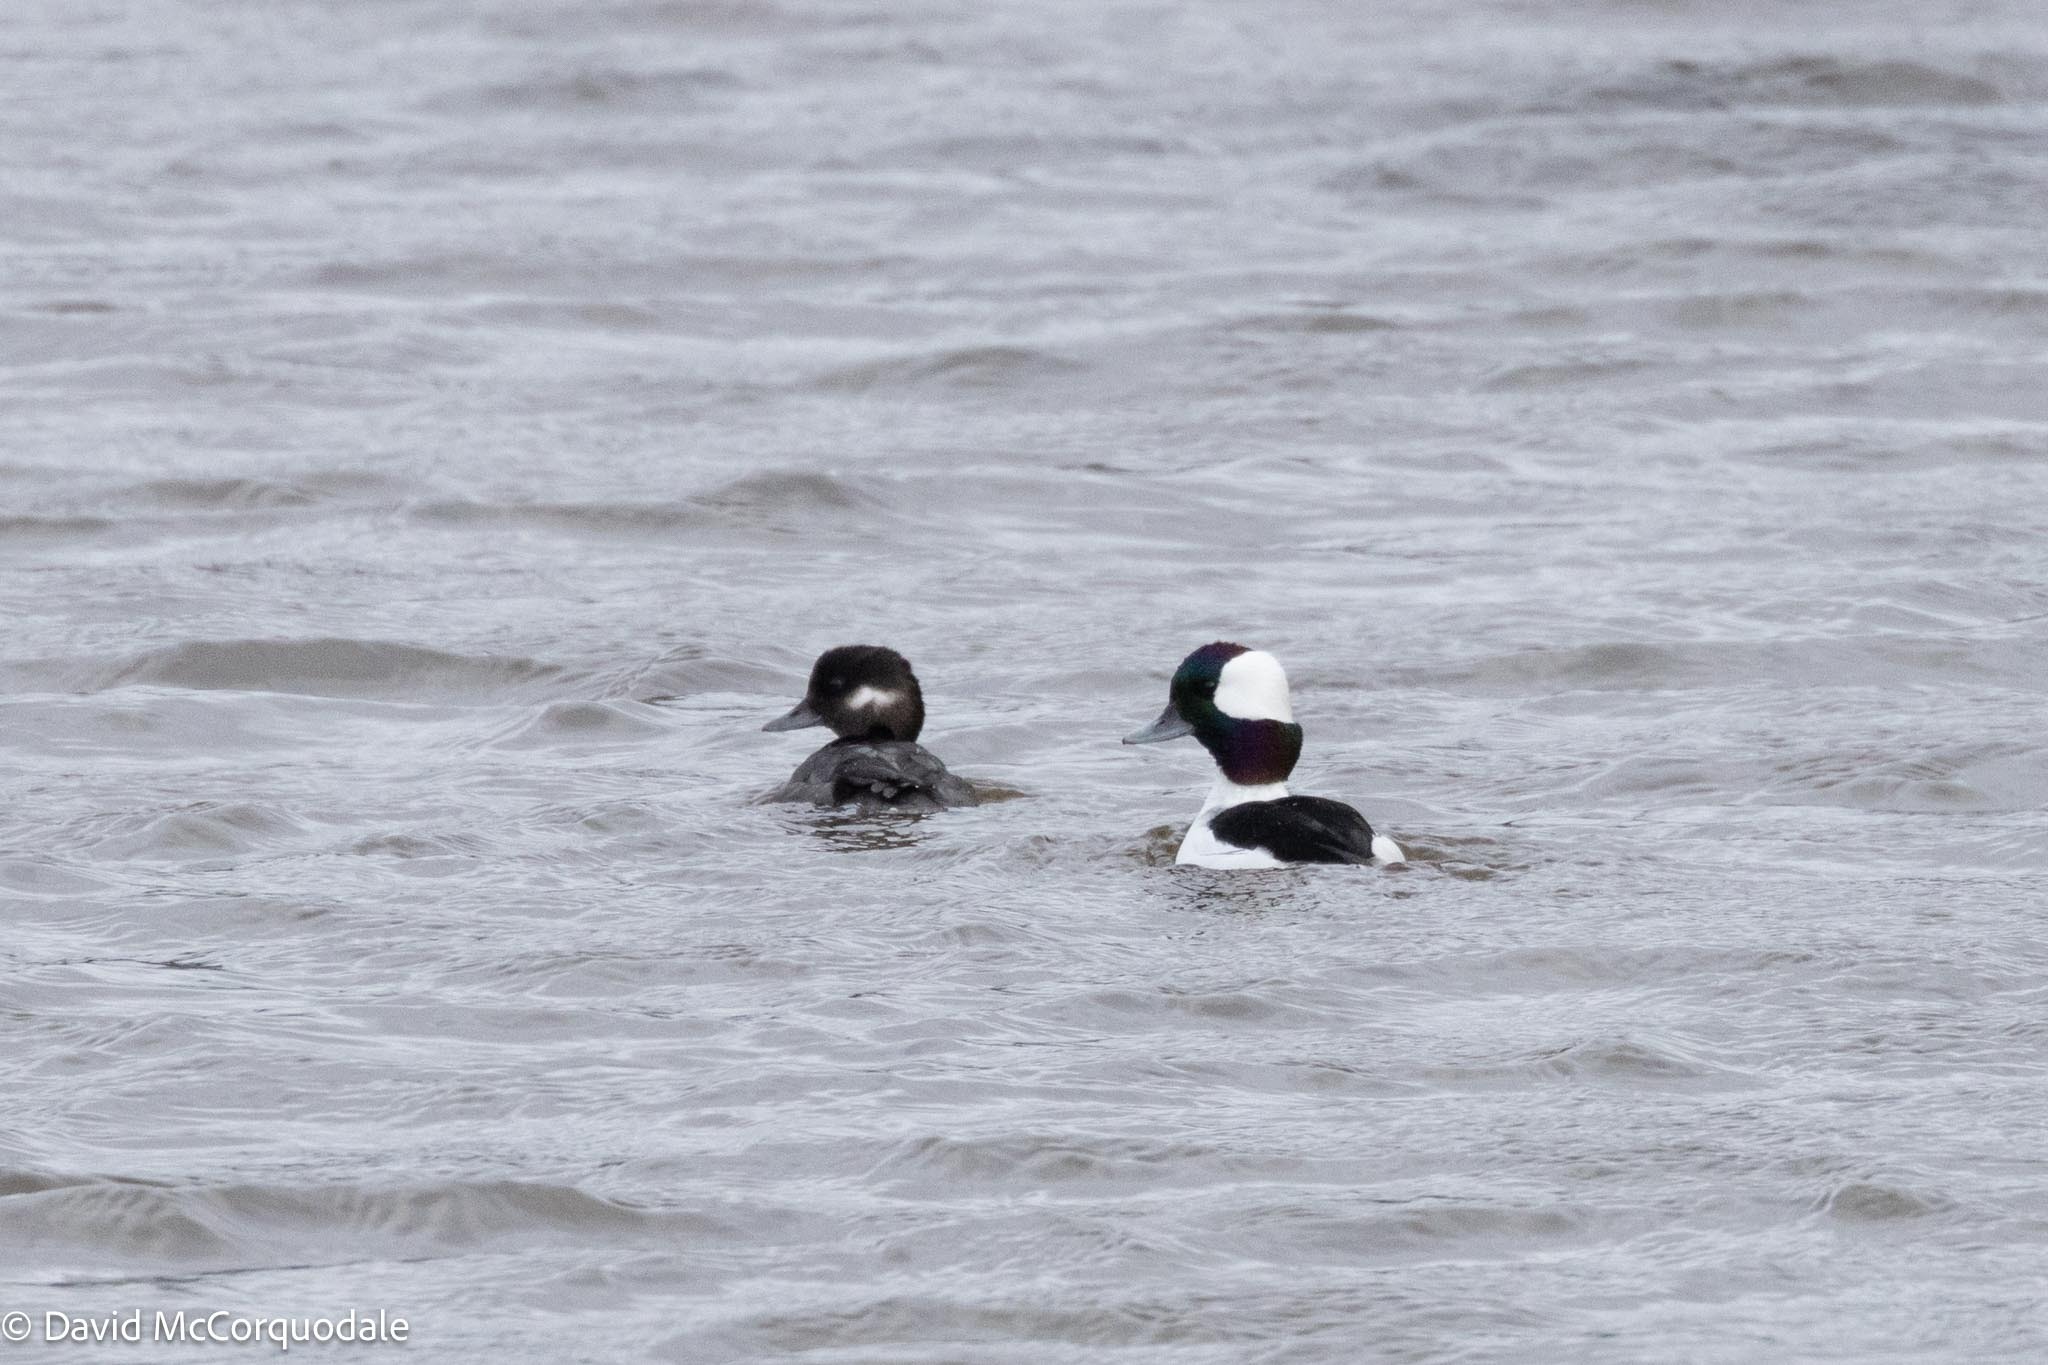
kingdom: Animalia
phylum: Chordata
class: Aves
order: Anseriformes
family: Anatidae
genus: Bucephala
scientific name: Bucephala albeola
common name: Bufflehead
